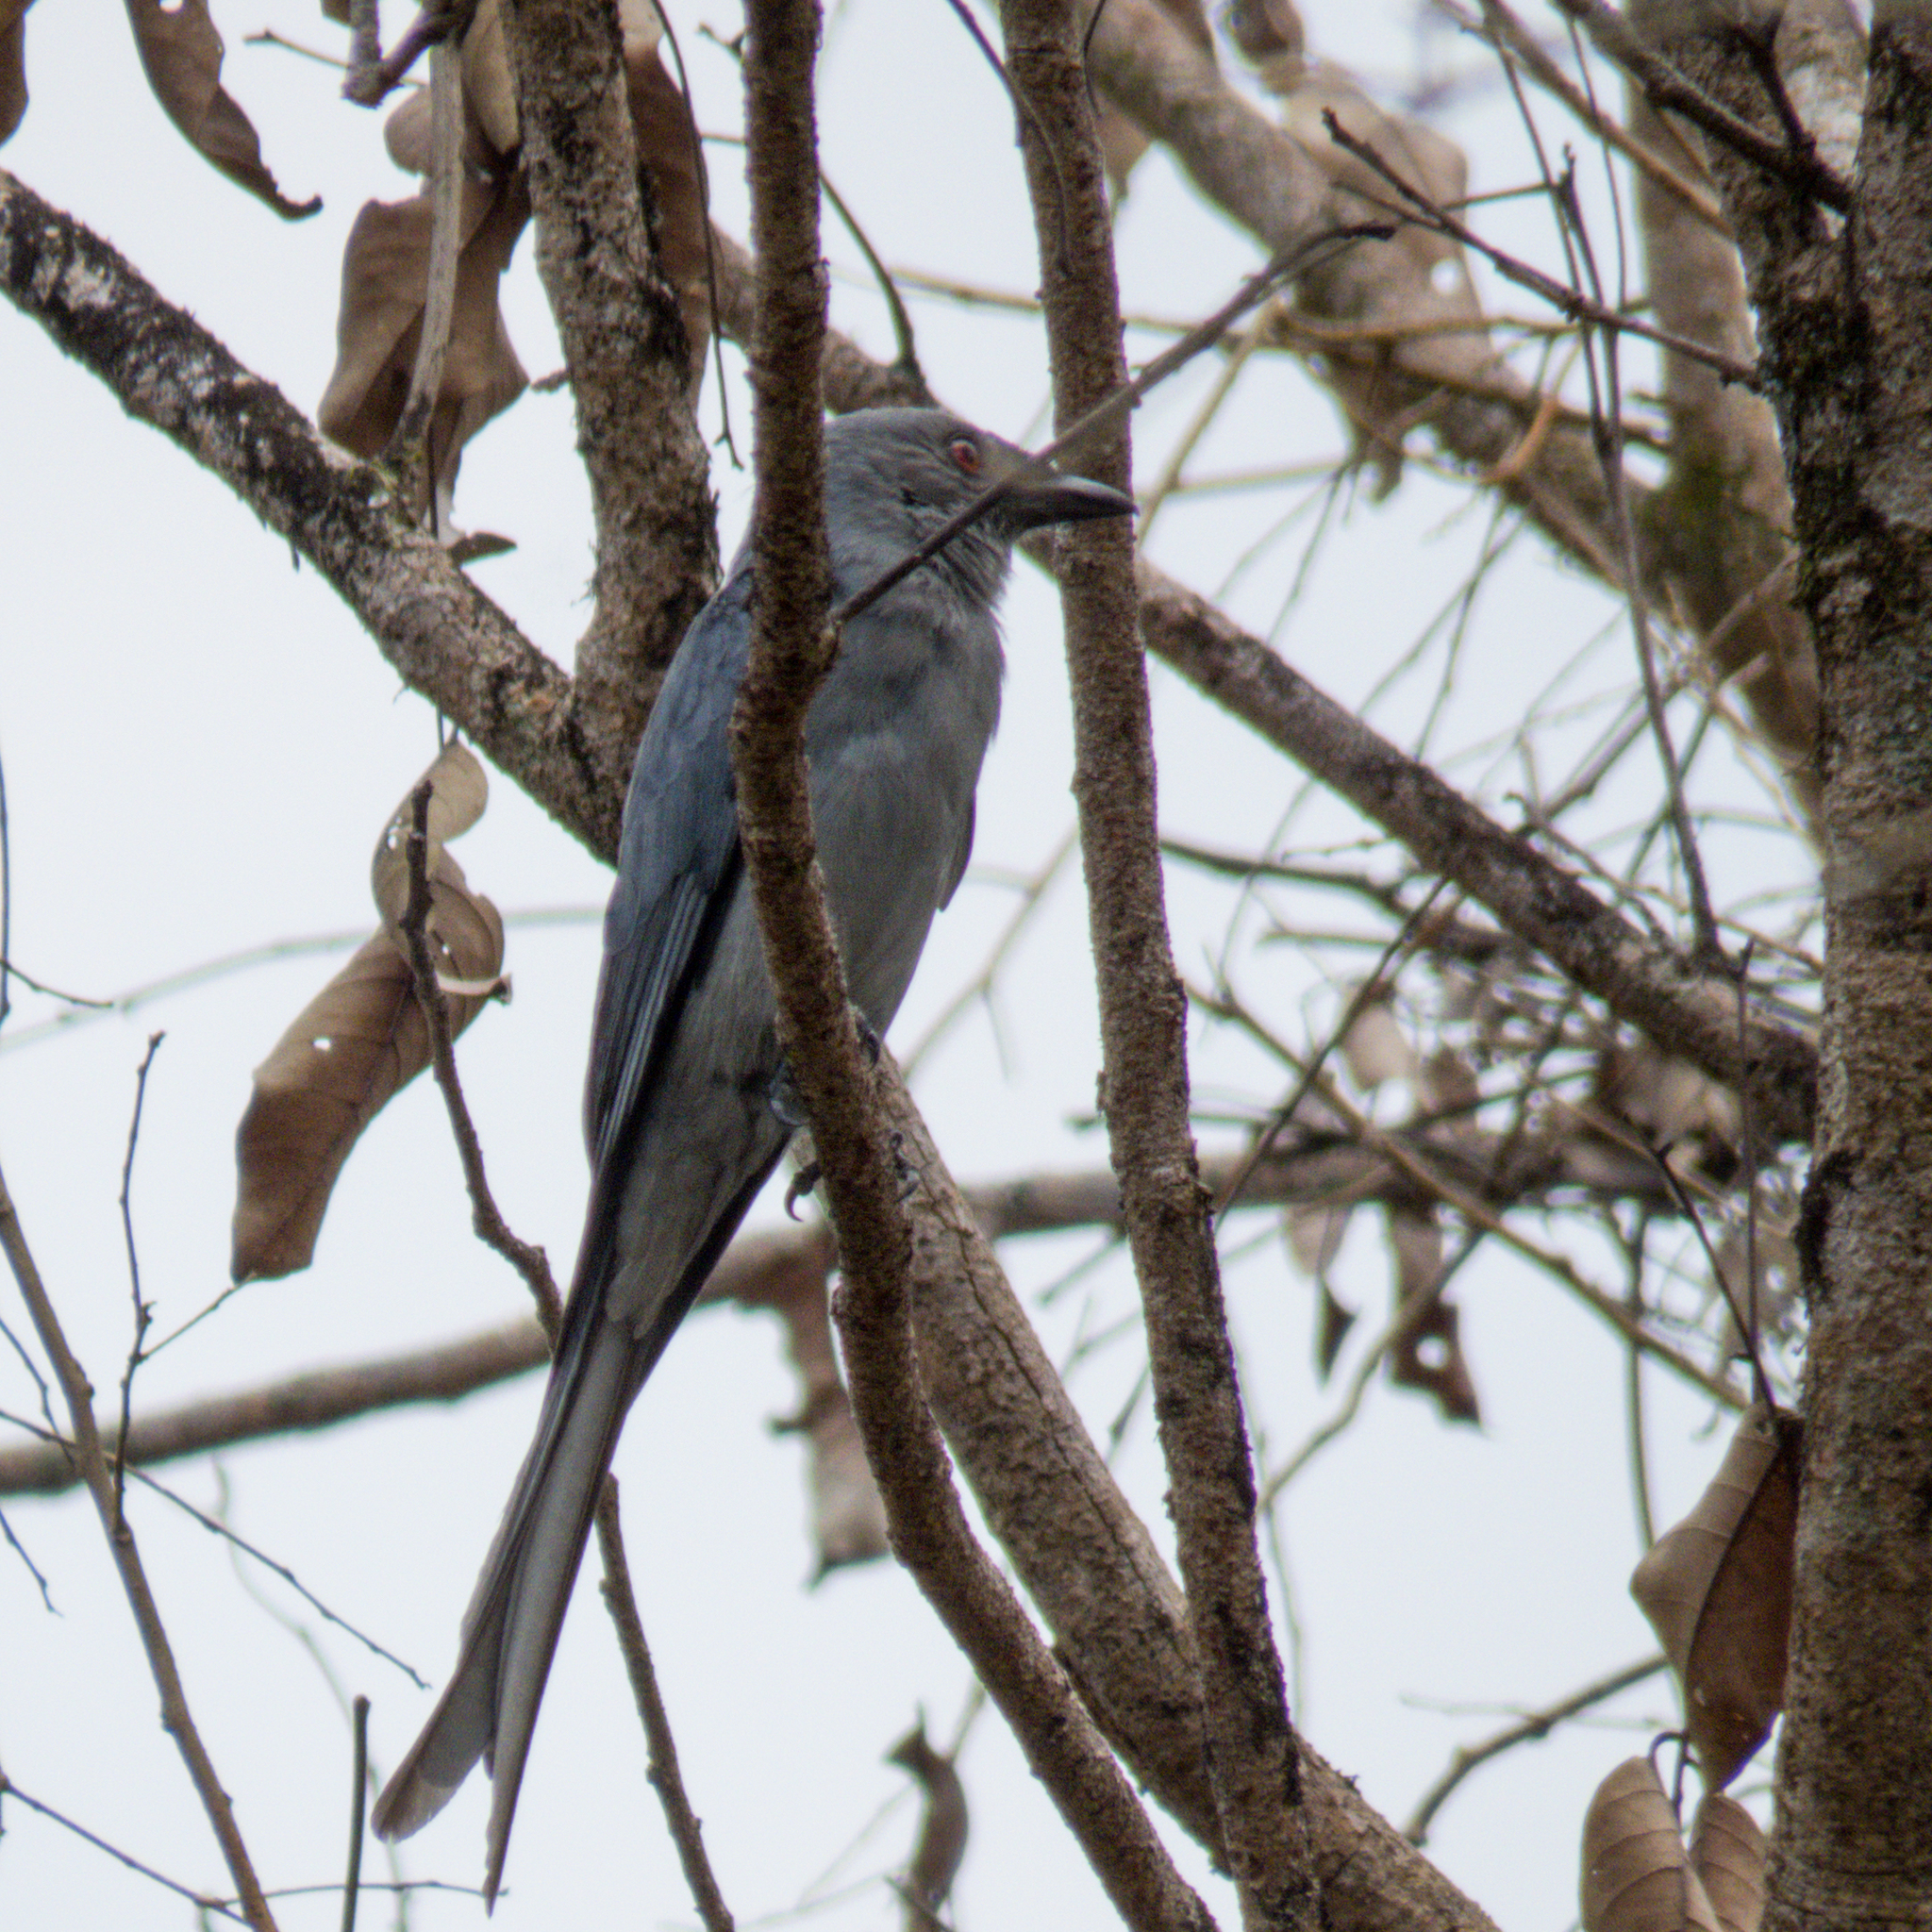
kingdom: Animalia
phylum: Chordata
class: Aves
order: Passeriformes
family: Dicruridae
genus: Dicrurus
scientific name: Dicrurus leucophaeus
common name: Ashy drongo
